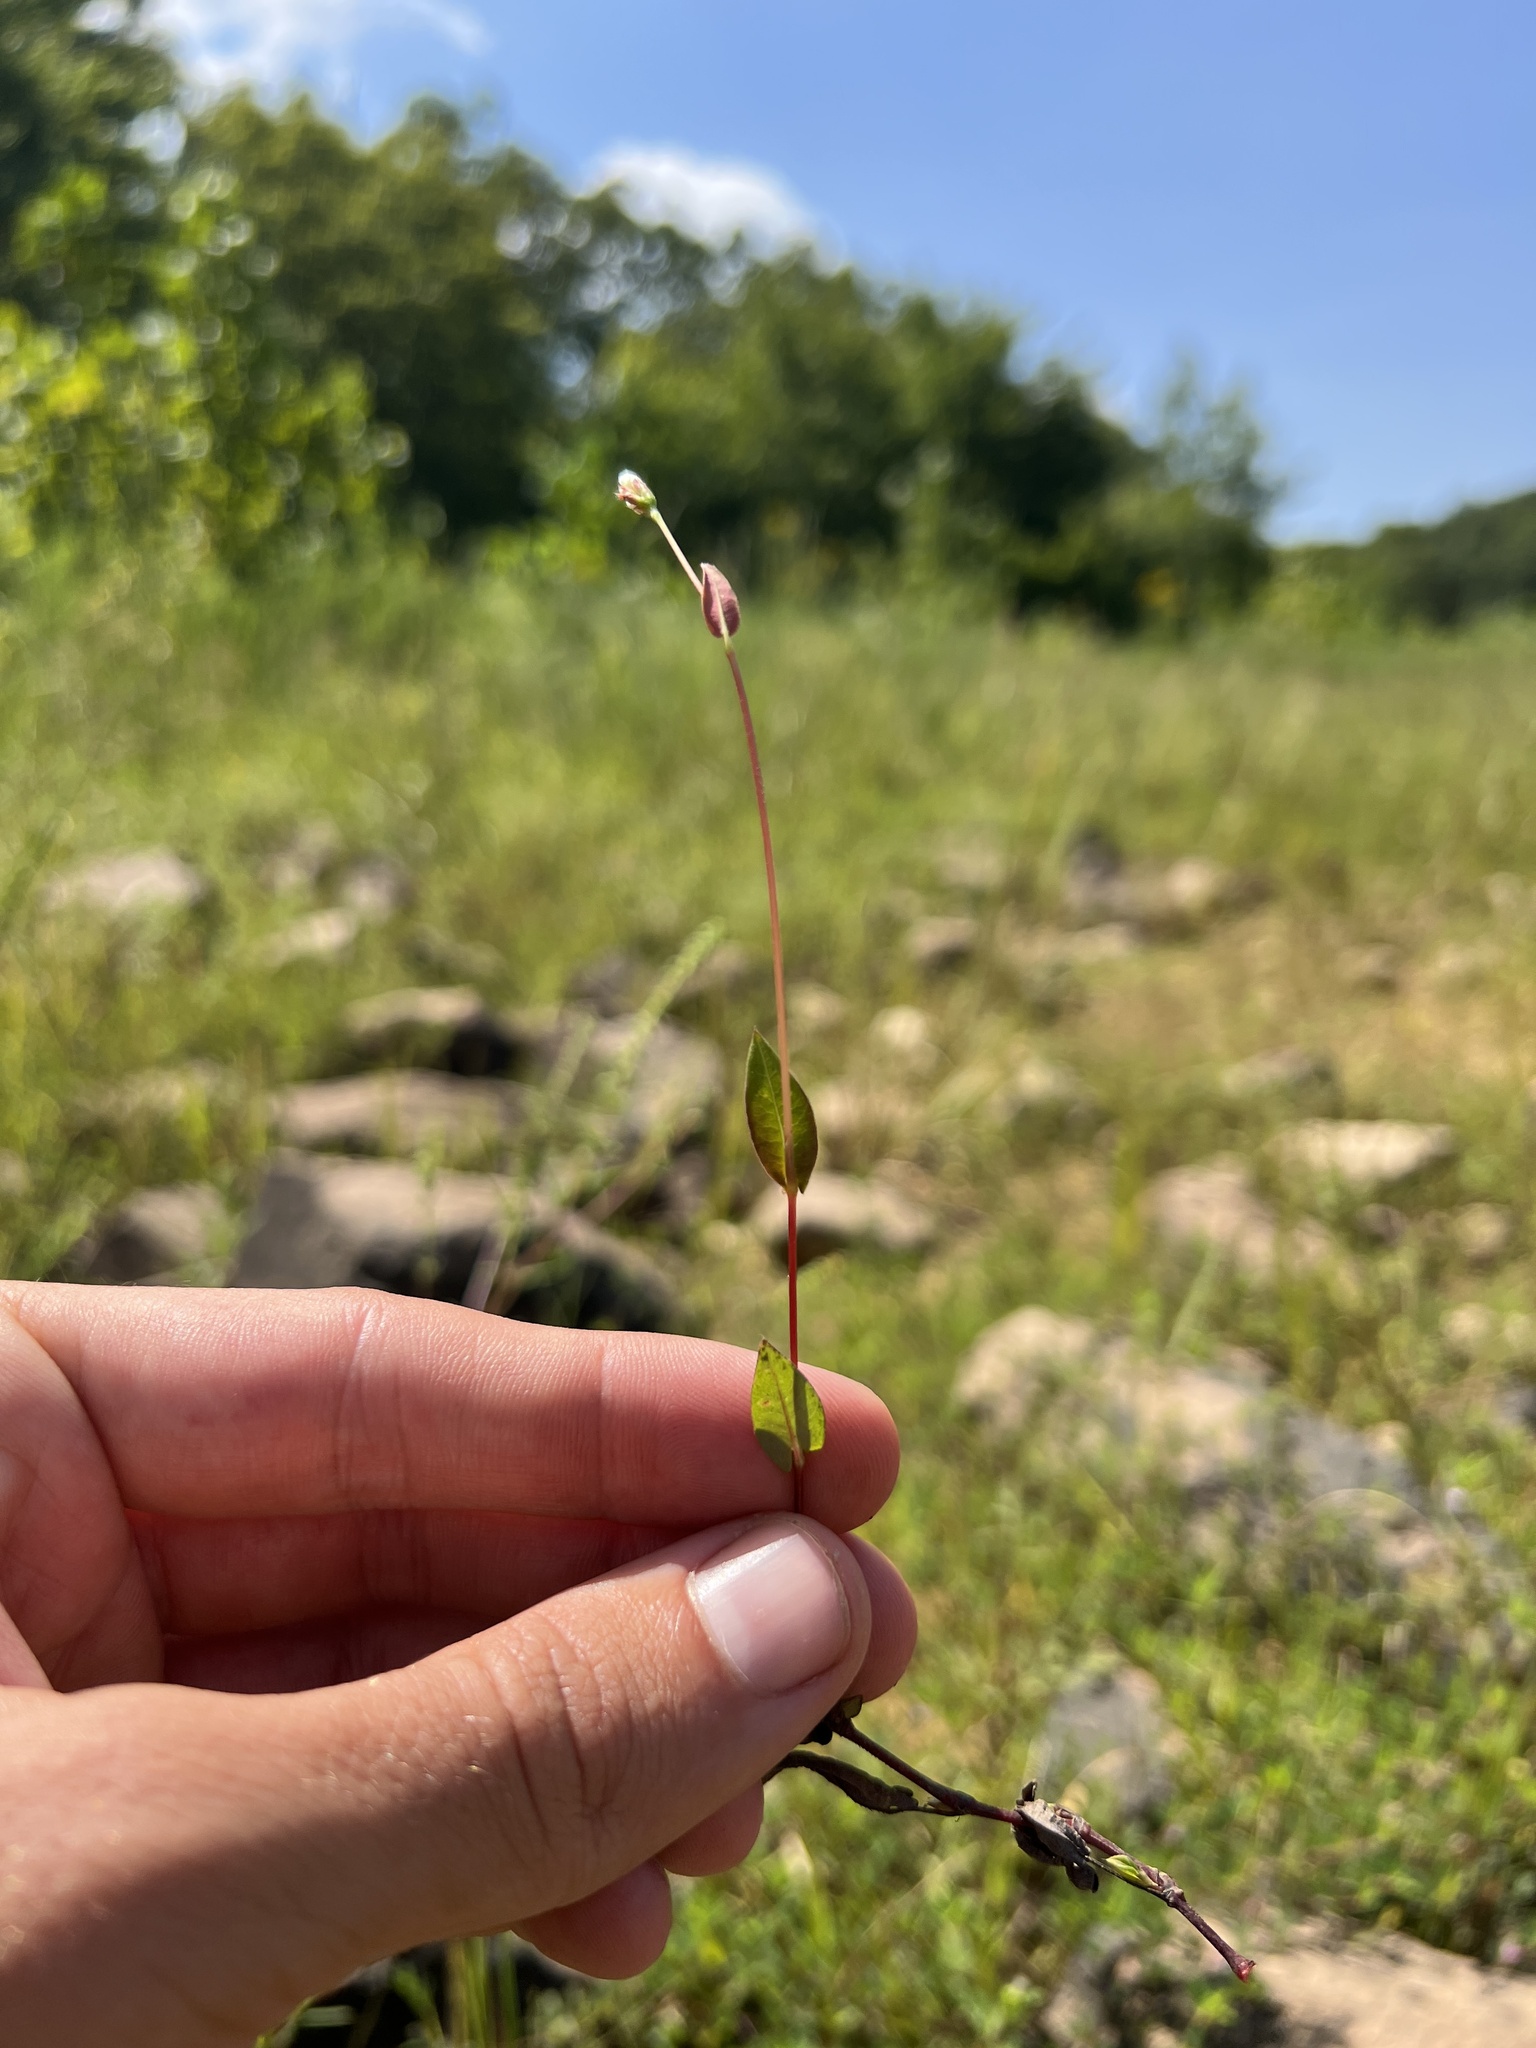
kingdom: Plantae
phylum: Tracheophyta
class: Magnoliopsida
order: Caryophyllales
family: Polygonaceae
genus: Persicaria
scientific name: Persicaria sagittata
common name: American tearthumb
